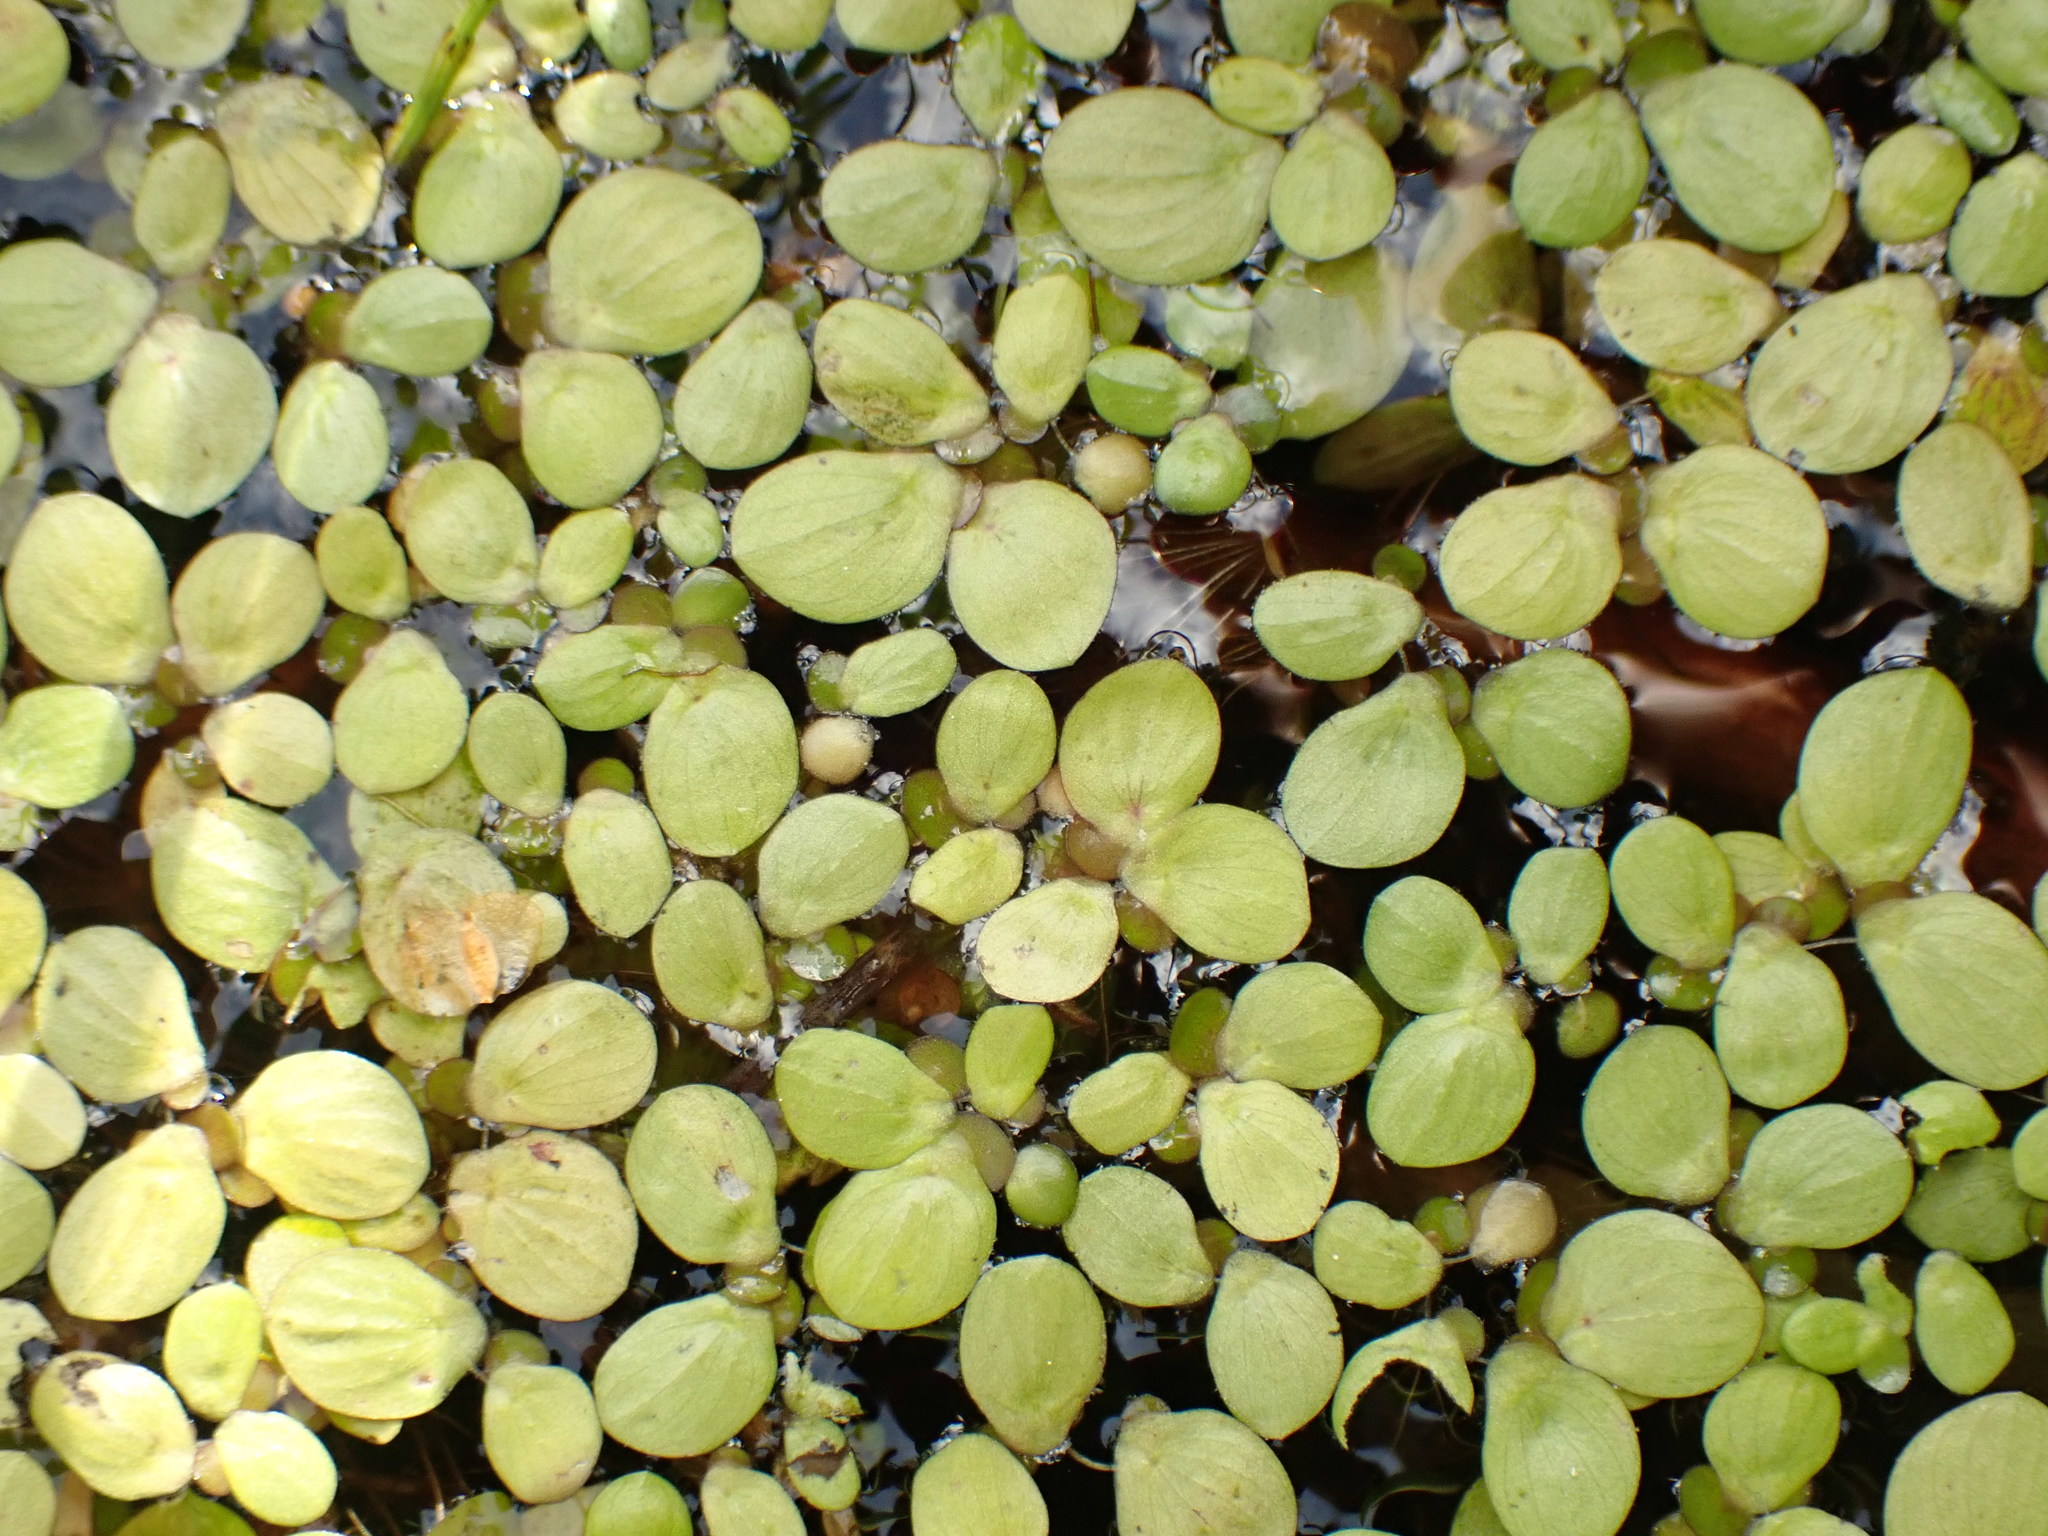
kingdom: Plantae
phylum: Tracheophyta
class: Liliopsida
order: Alismatales
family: Araceae
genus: Spirodela
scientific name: Spirodela polyrhiza
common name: Great duckweed
